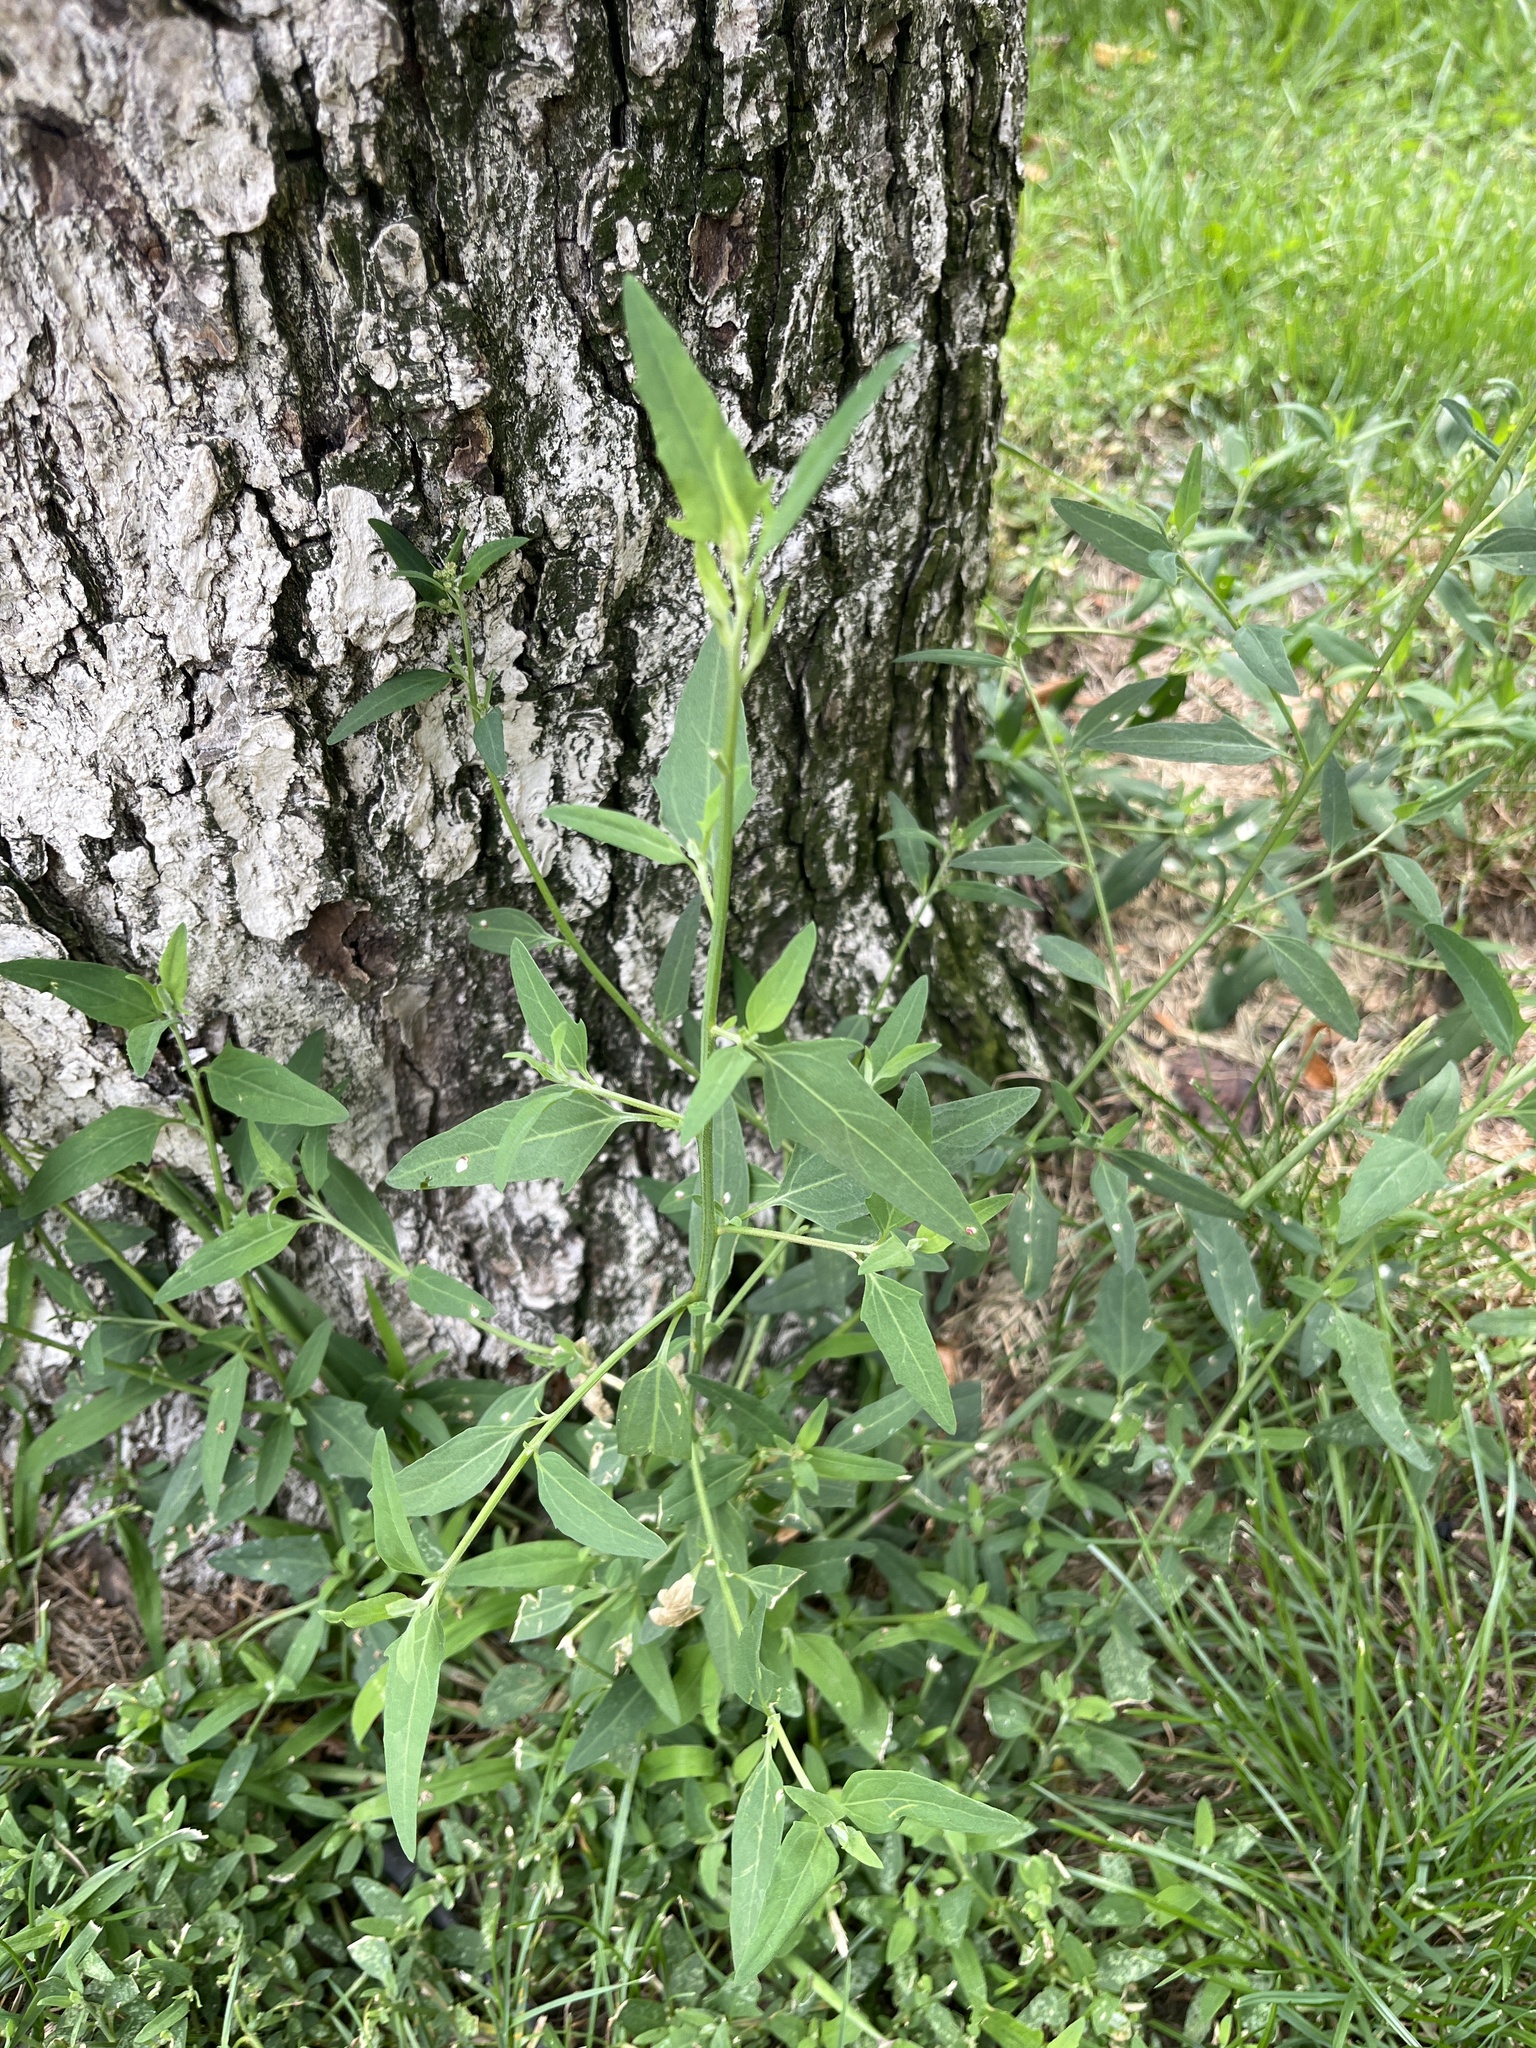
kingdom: Plantae
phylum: Tracheophyta
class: Magnoliopsida
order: Caryophyllales
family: Amaranthaceae
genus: Atriplex
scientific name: Atriplex patula
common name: Common orache
